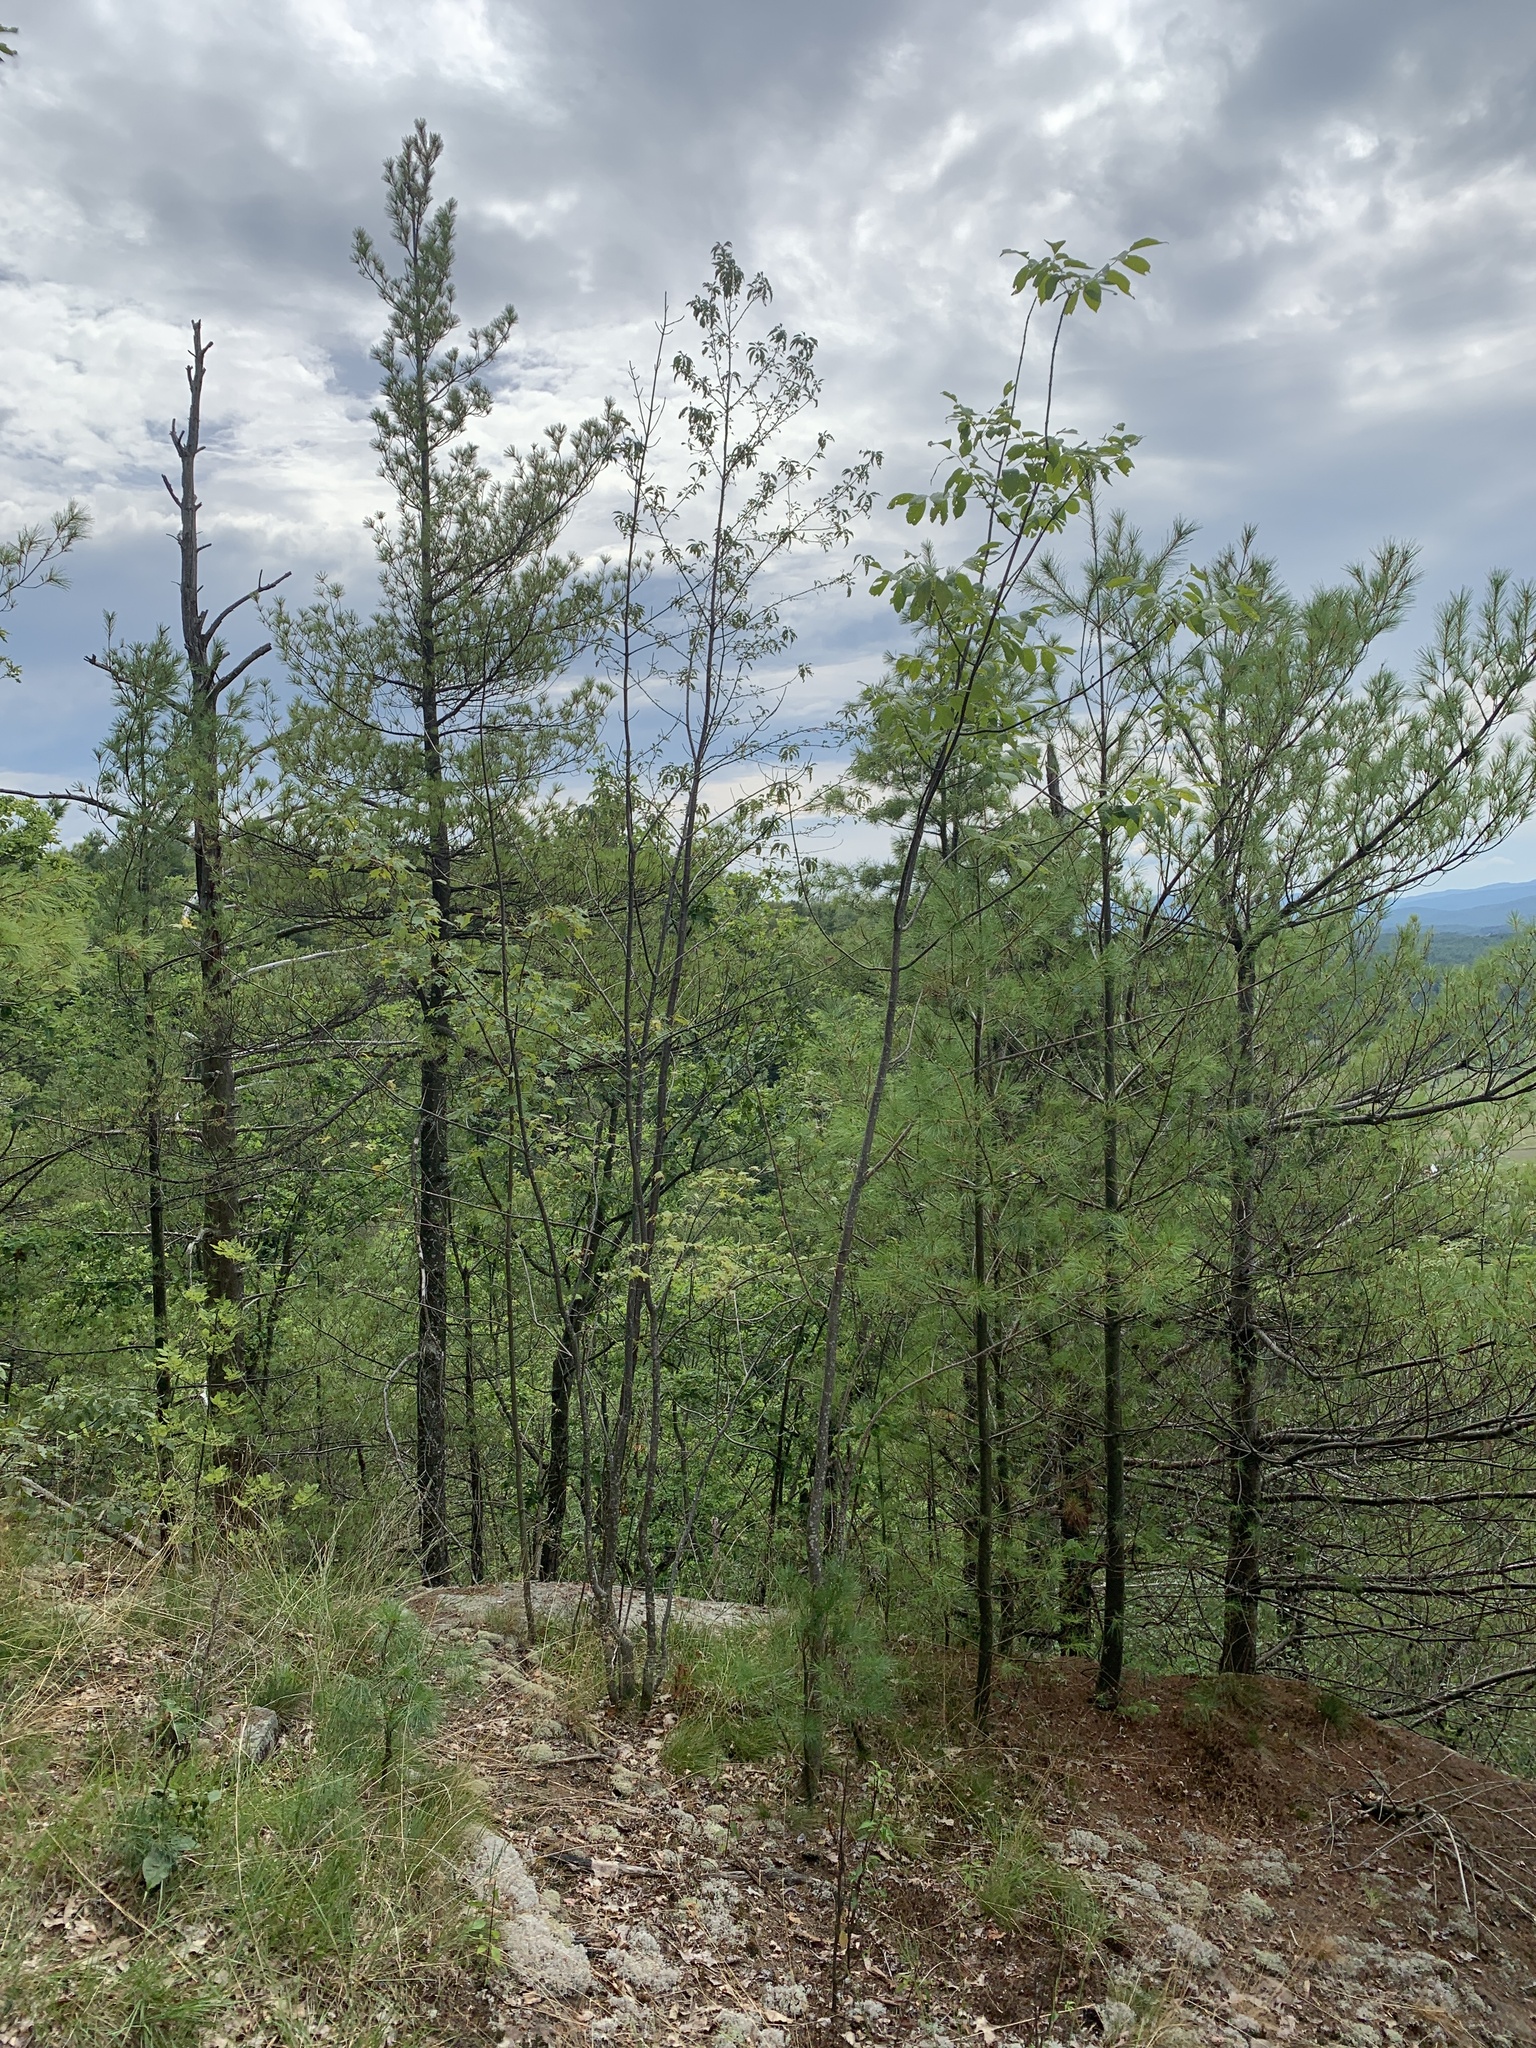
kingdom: Plantae
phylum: Tracheophyta
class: Pinopsida
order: Pinales
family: Pinaceae
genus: Pinus
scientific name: Pinus strobus
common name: Weymouth pine
